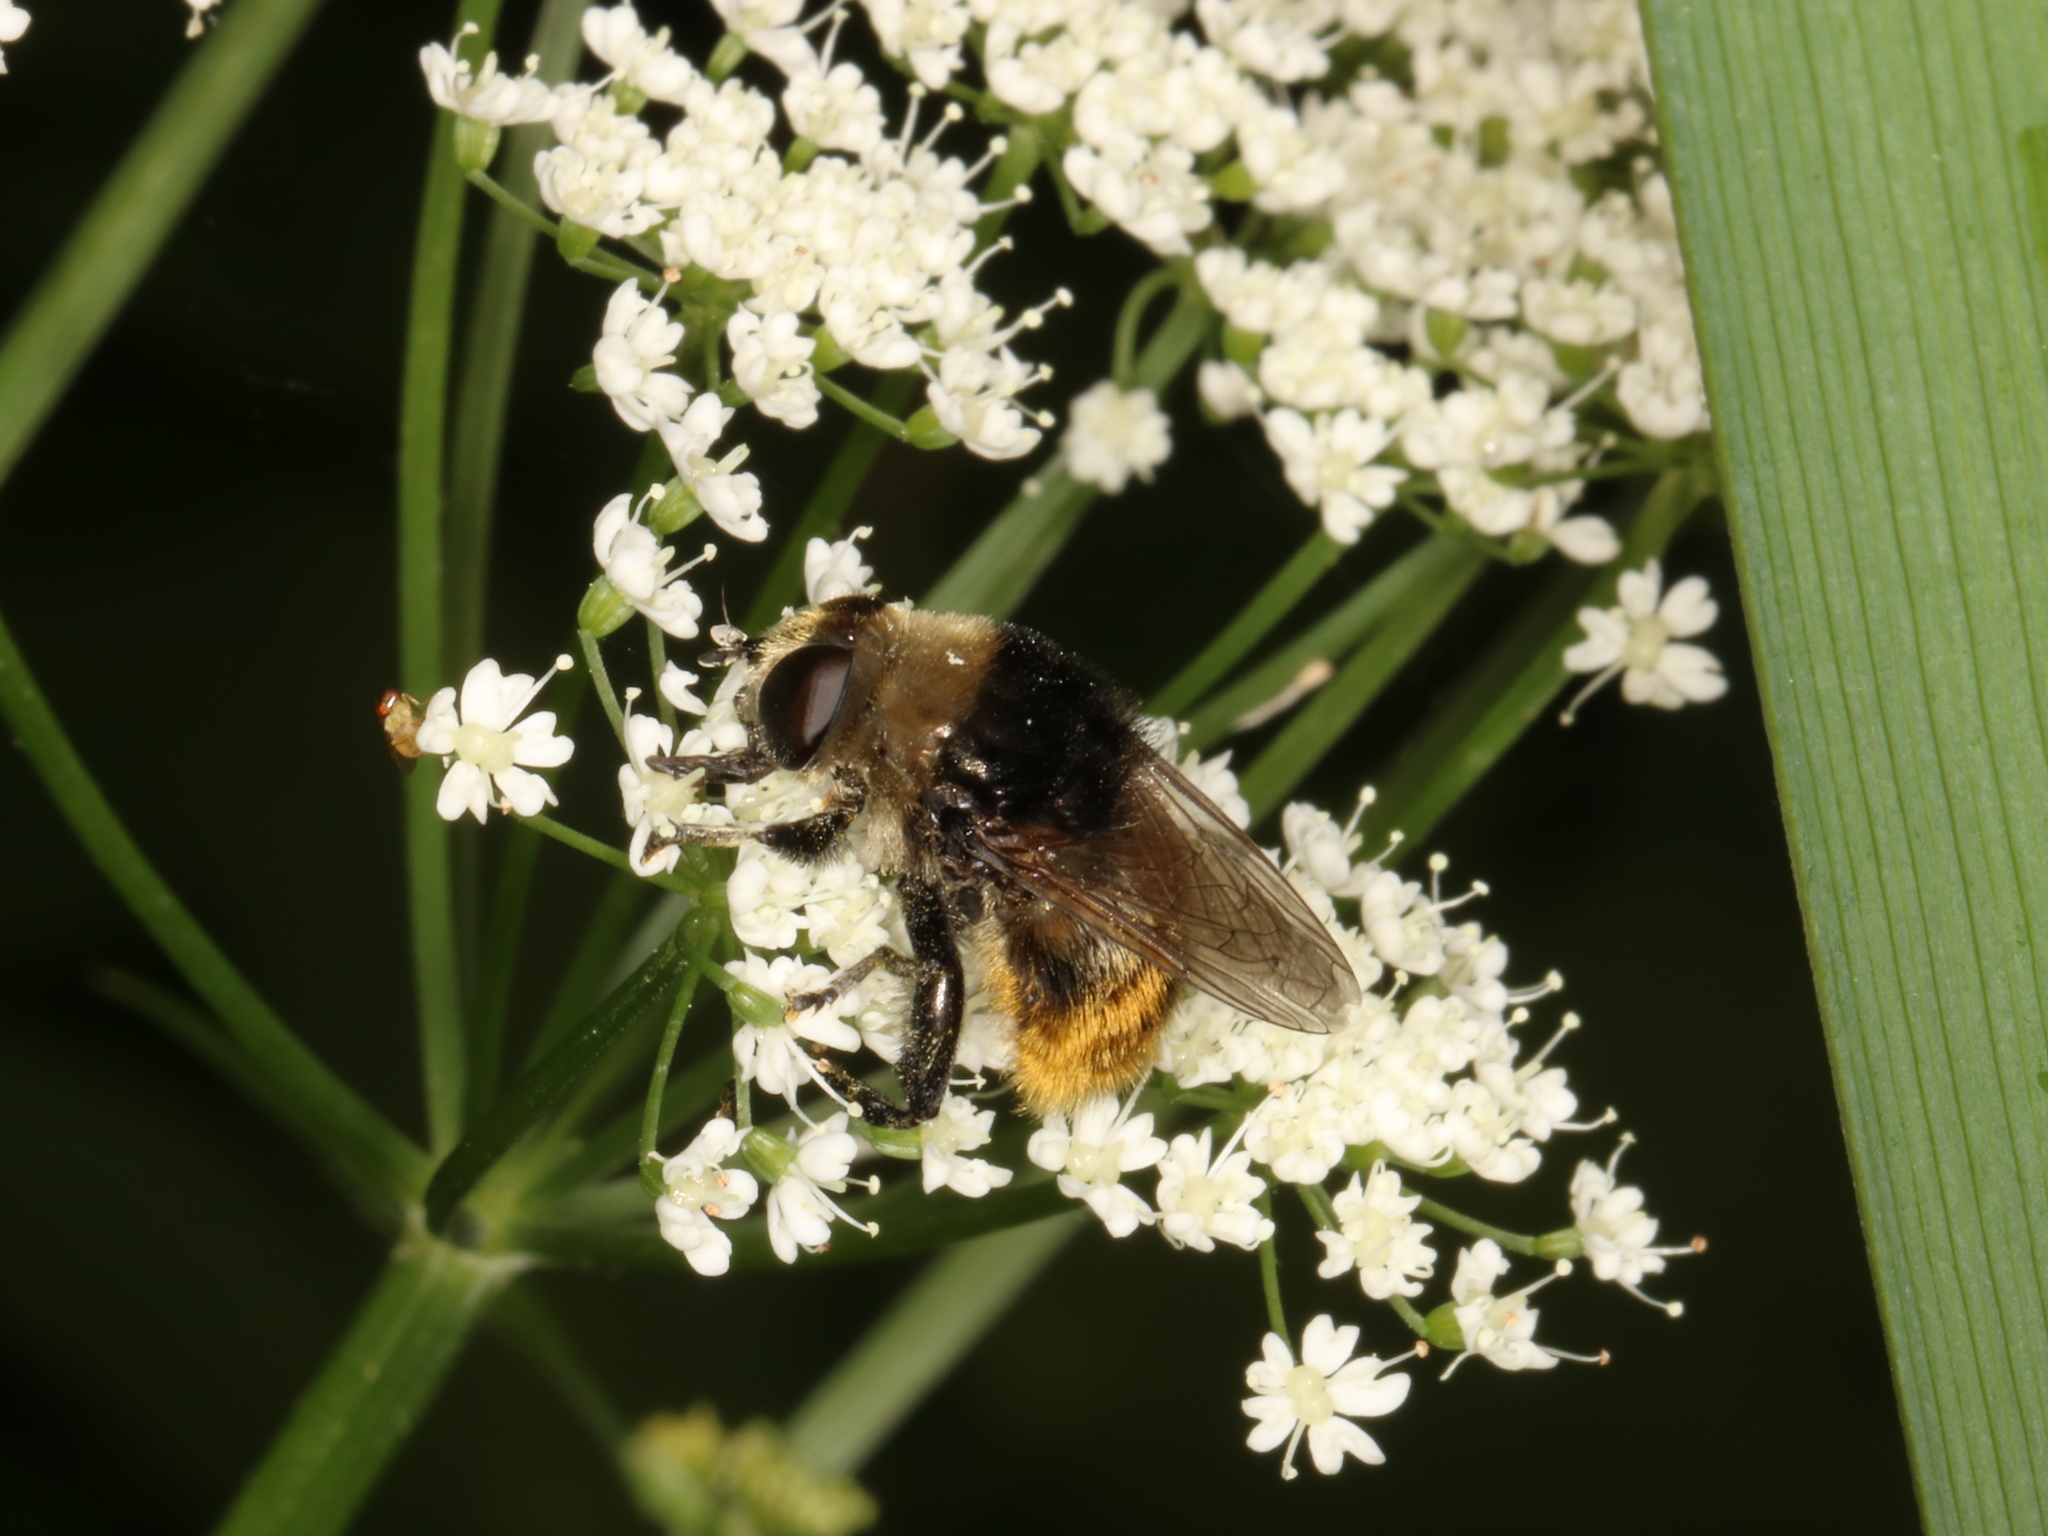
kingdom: Animalia
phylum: Arthropoda
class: Insecta
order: Diptera
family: Syrphidae
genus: Merodon
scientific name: Merodon equestris
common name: Greater bulb-fly
